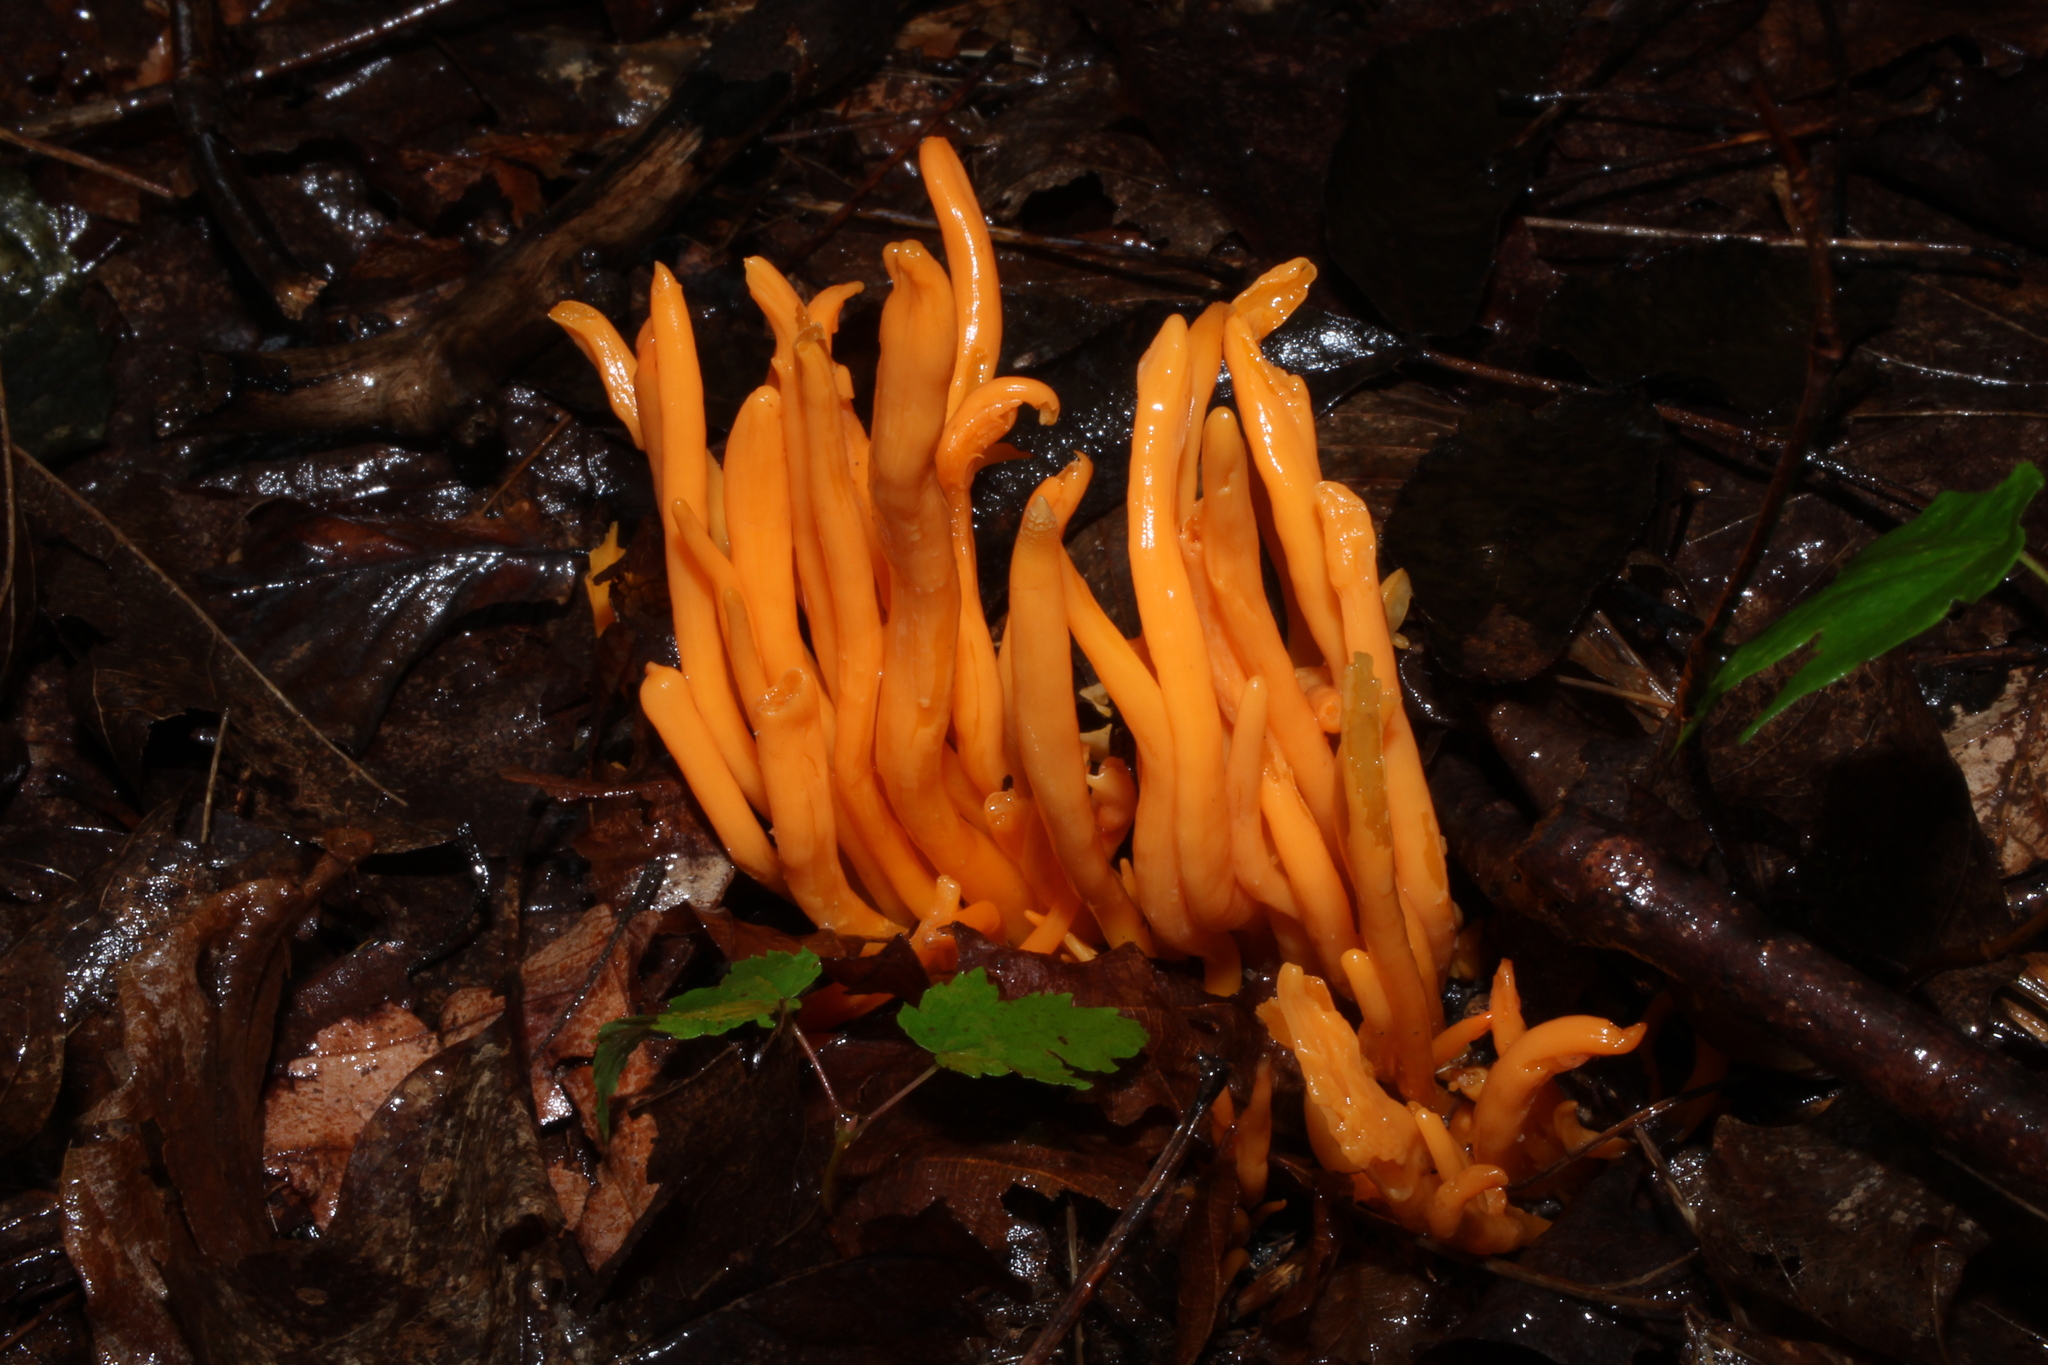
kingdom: Fungi
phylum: Basidiomycota
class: Agaricomycetes
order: Agaricales
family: Clavariaceae
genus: Clavulinopsis
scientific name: Clavulinopsis aurantiocinnabarina
